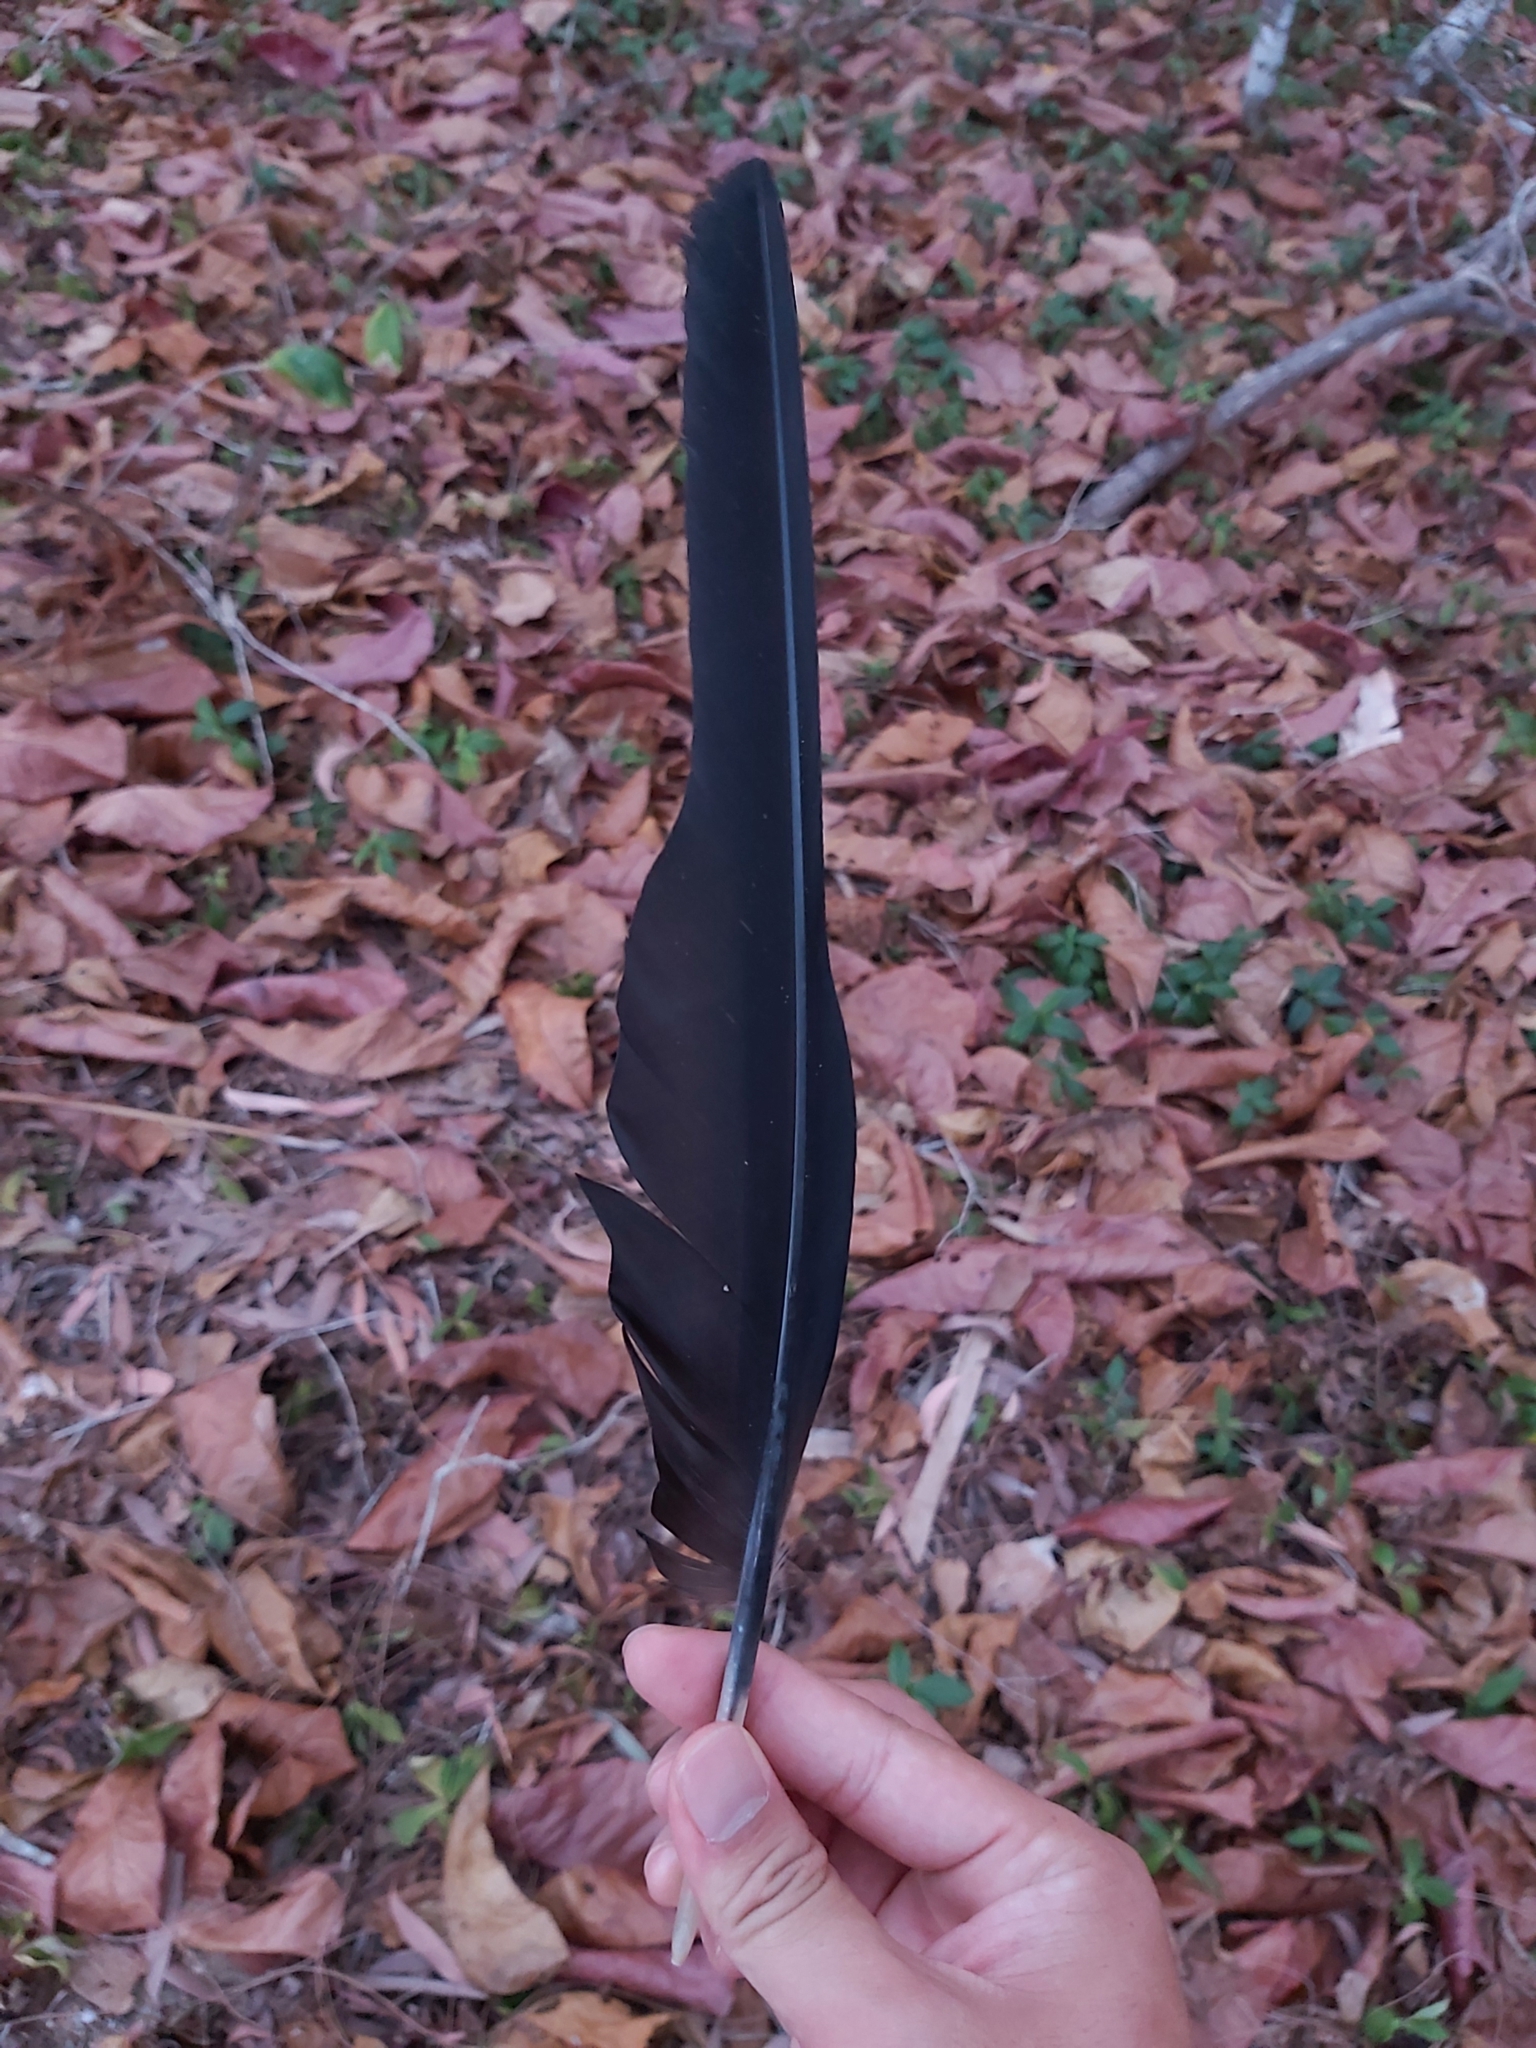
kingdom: Animalia
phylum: Chordata
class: Aves
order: Psittaciformes
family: Psittacidae
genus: Calyptorhynchus
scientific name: Calyptorhynchus banksii
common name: Red-tailed black cockatoo
